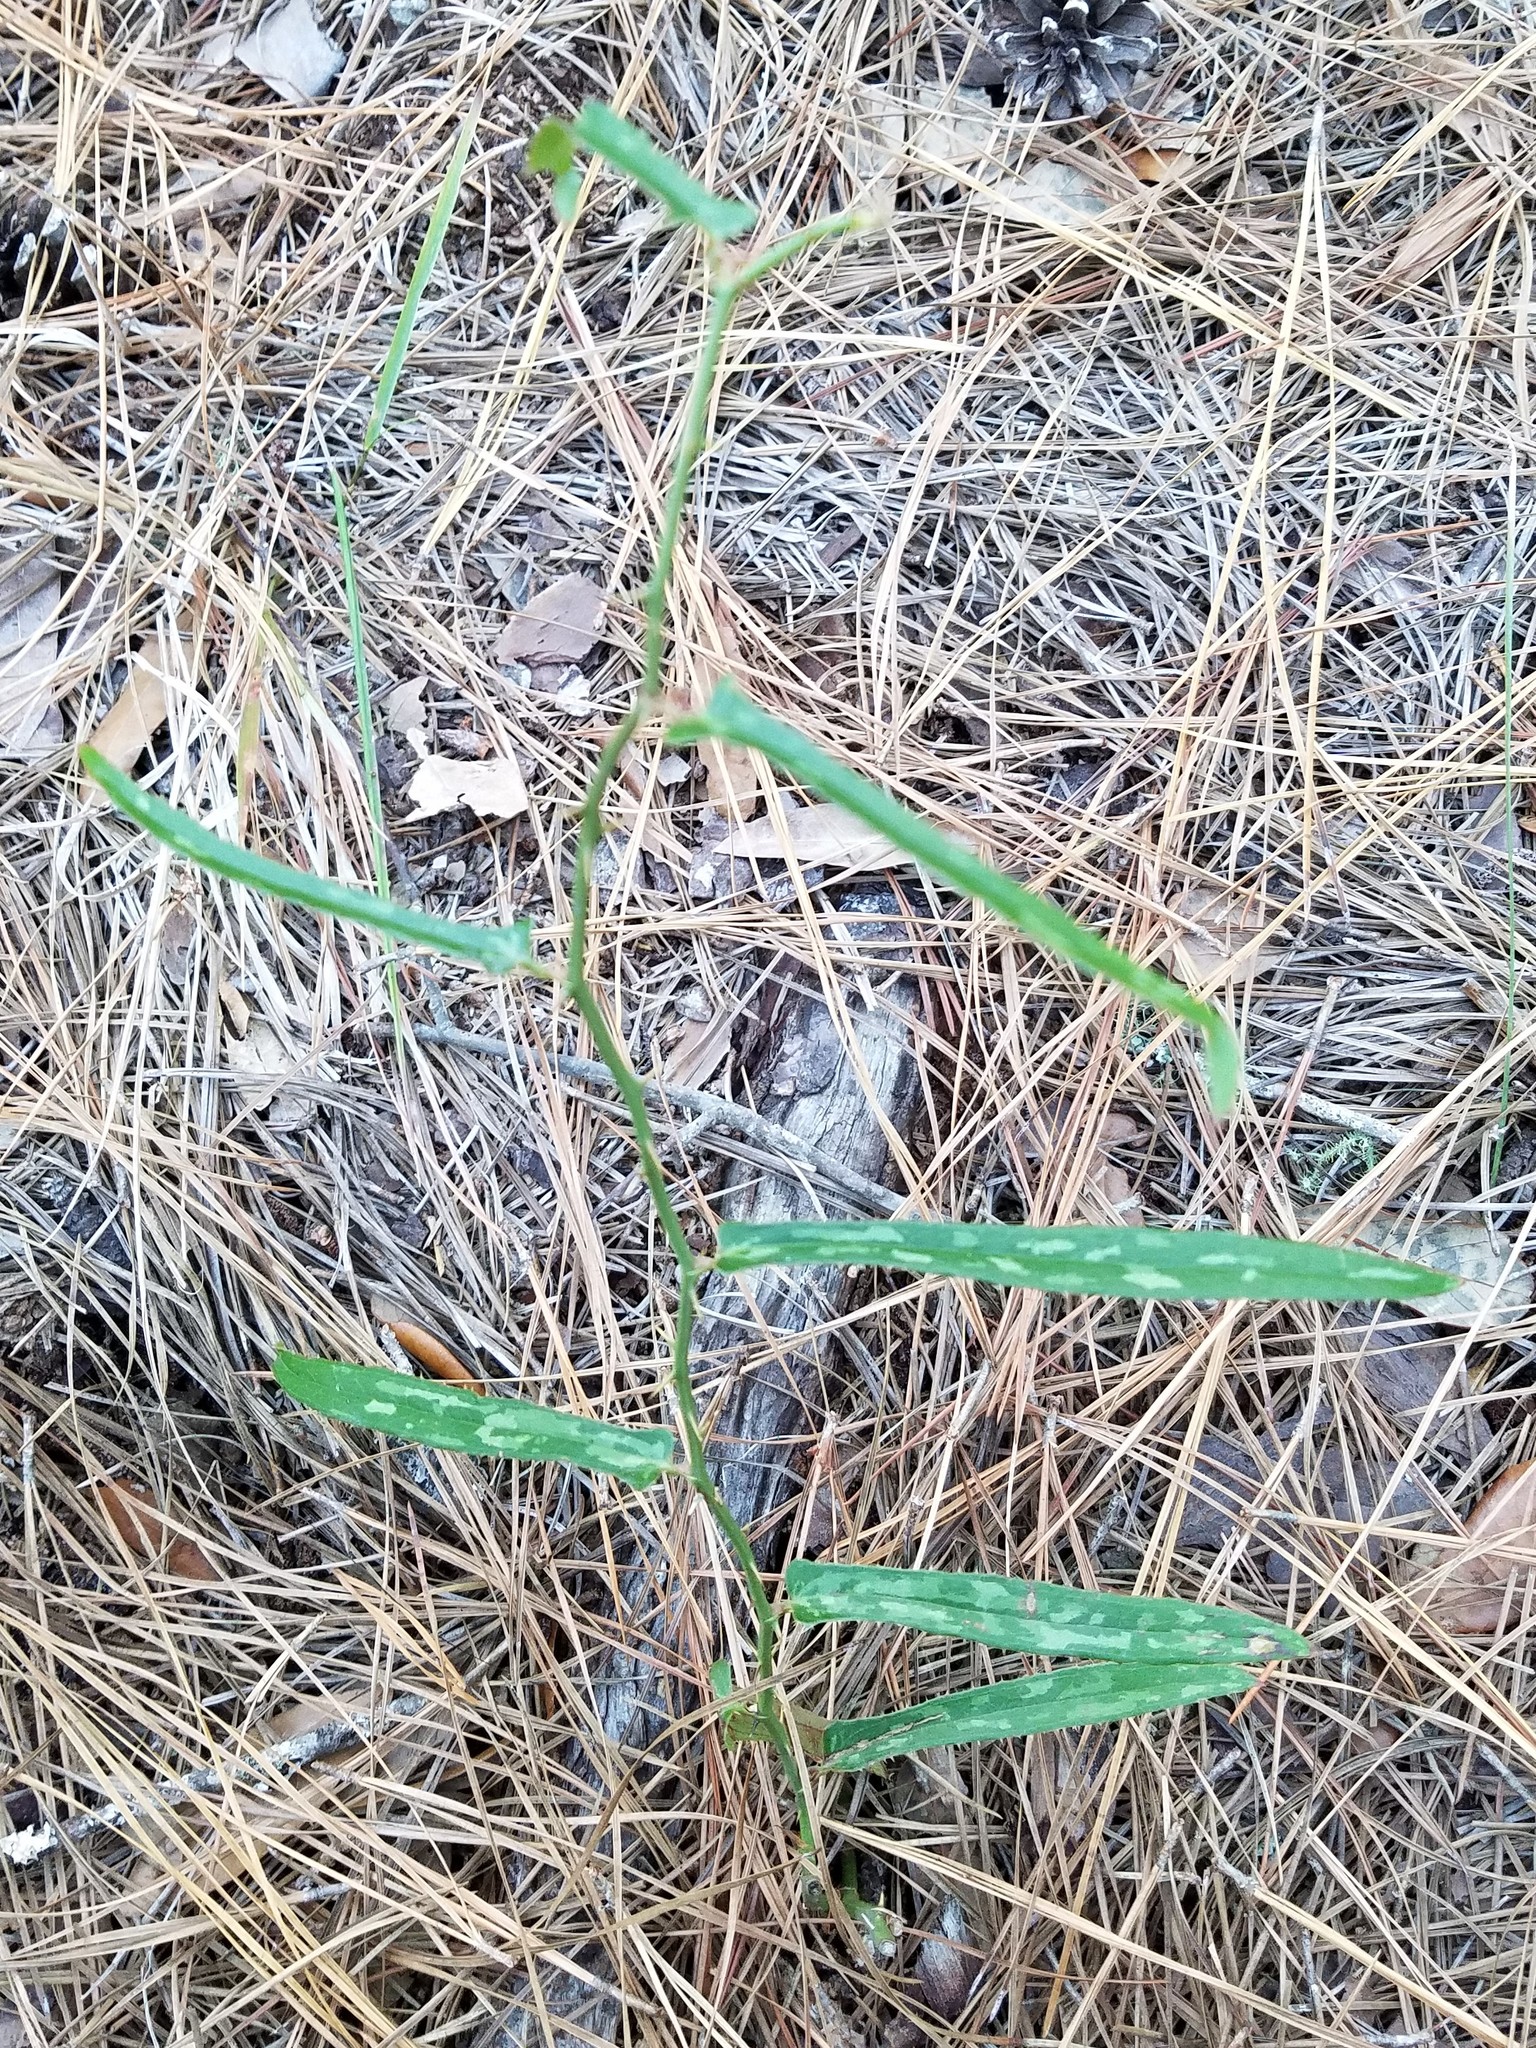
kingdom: Plantae
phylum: Tracheophyta
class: Liliopsida
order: Liliales
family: Smilacaceae
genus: Smilax
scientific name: Smilax bona-nox
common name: Catbrier
